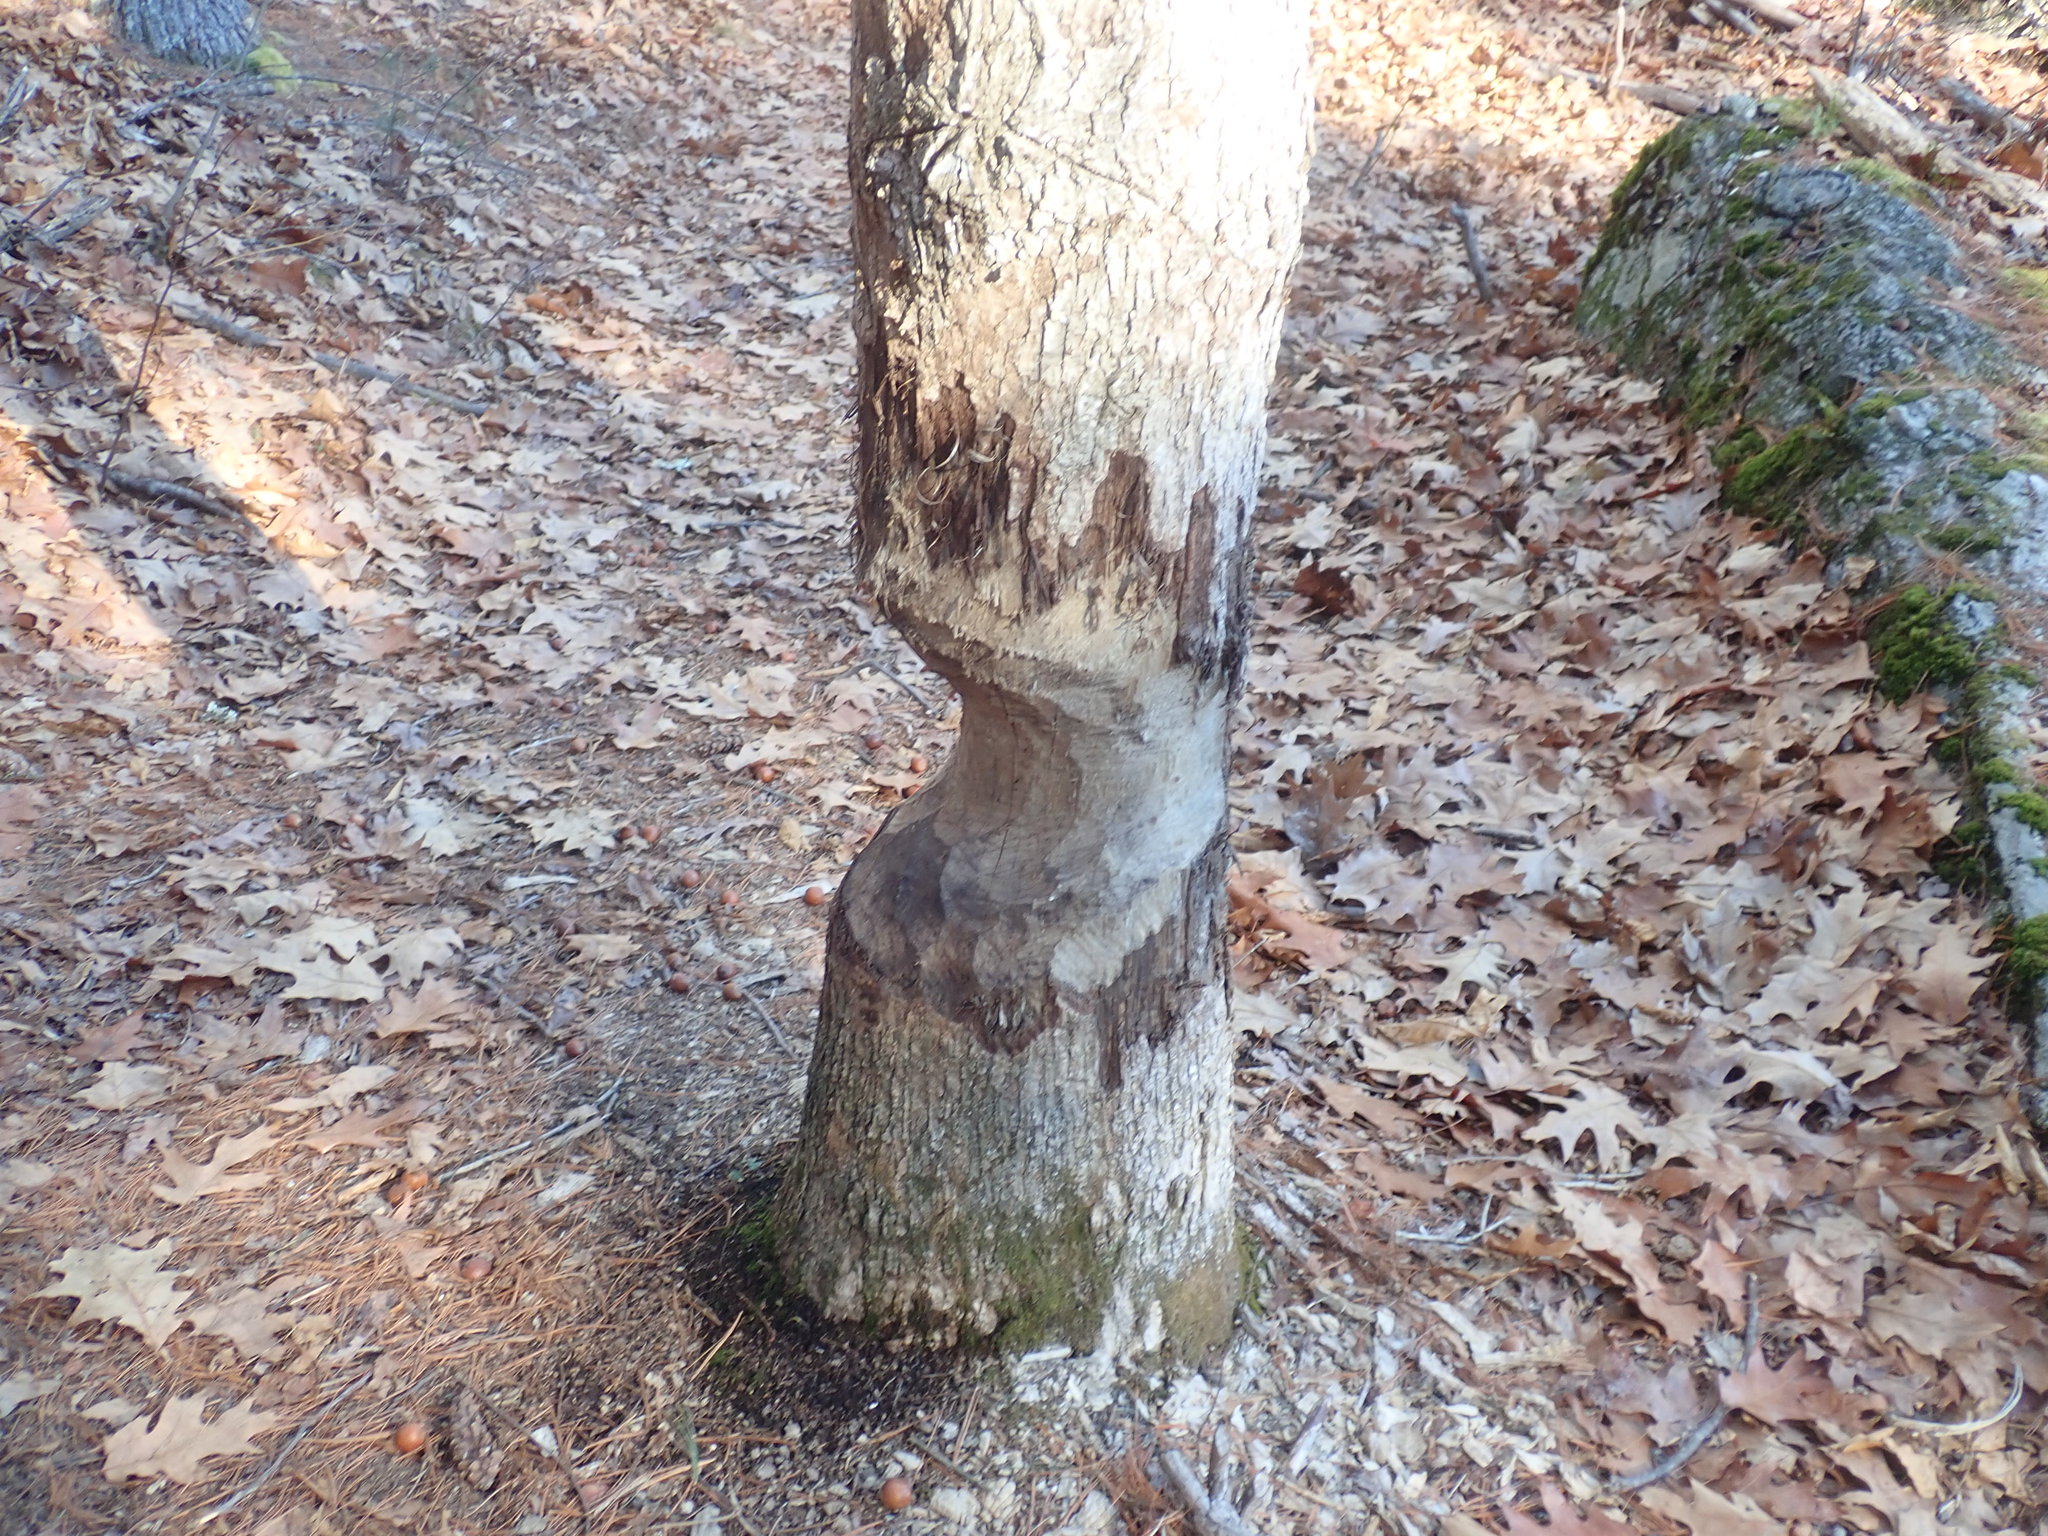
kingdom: Animalia
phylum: Chordata
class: Mammalia
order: Rodentia
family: Castoridae
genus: Castor
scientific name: Castor canadensis
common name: American beaver
